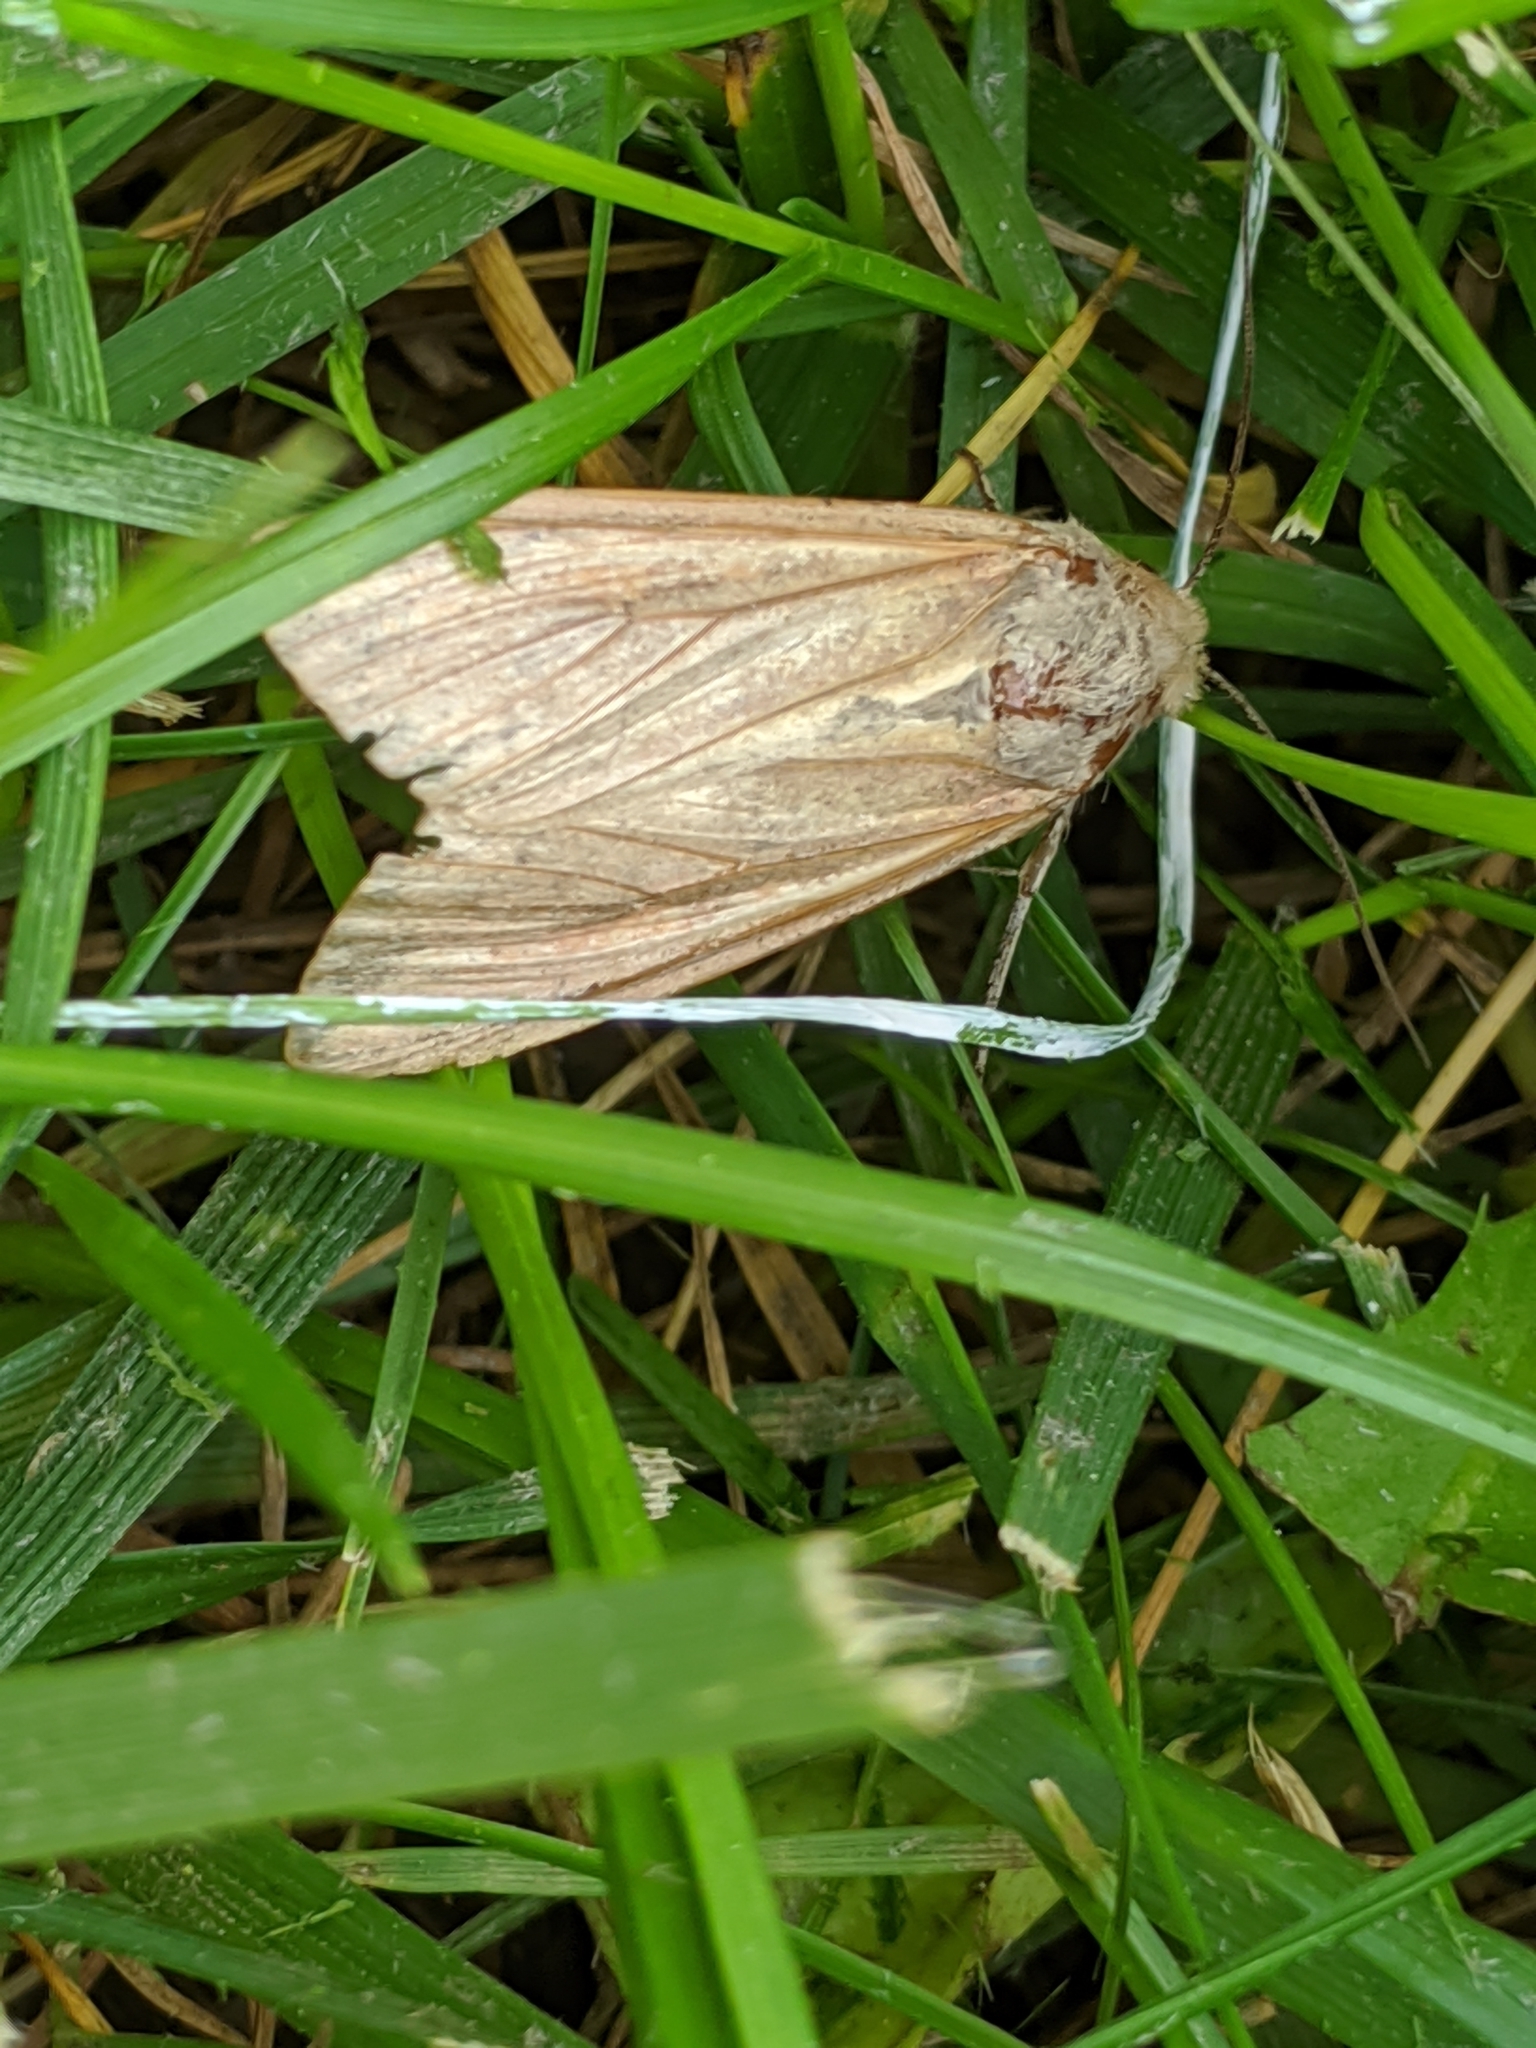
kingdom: Animalia
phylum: Arthropoda
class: Insecta
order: Lepidoptera
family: Noctuidae
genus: Mythimna
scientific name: Mythimna unipuncta
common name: White-speck
